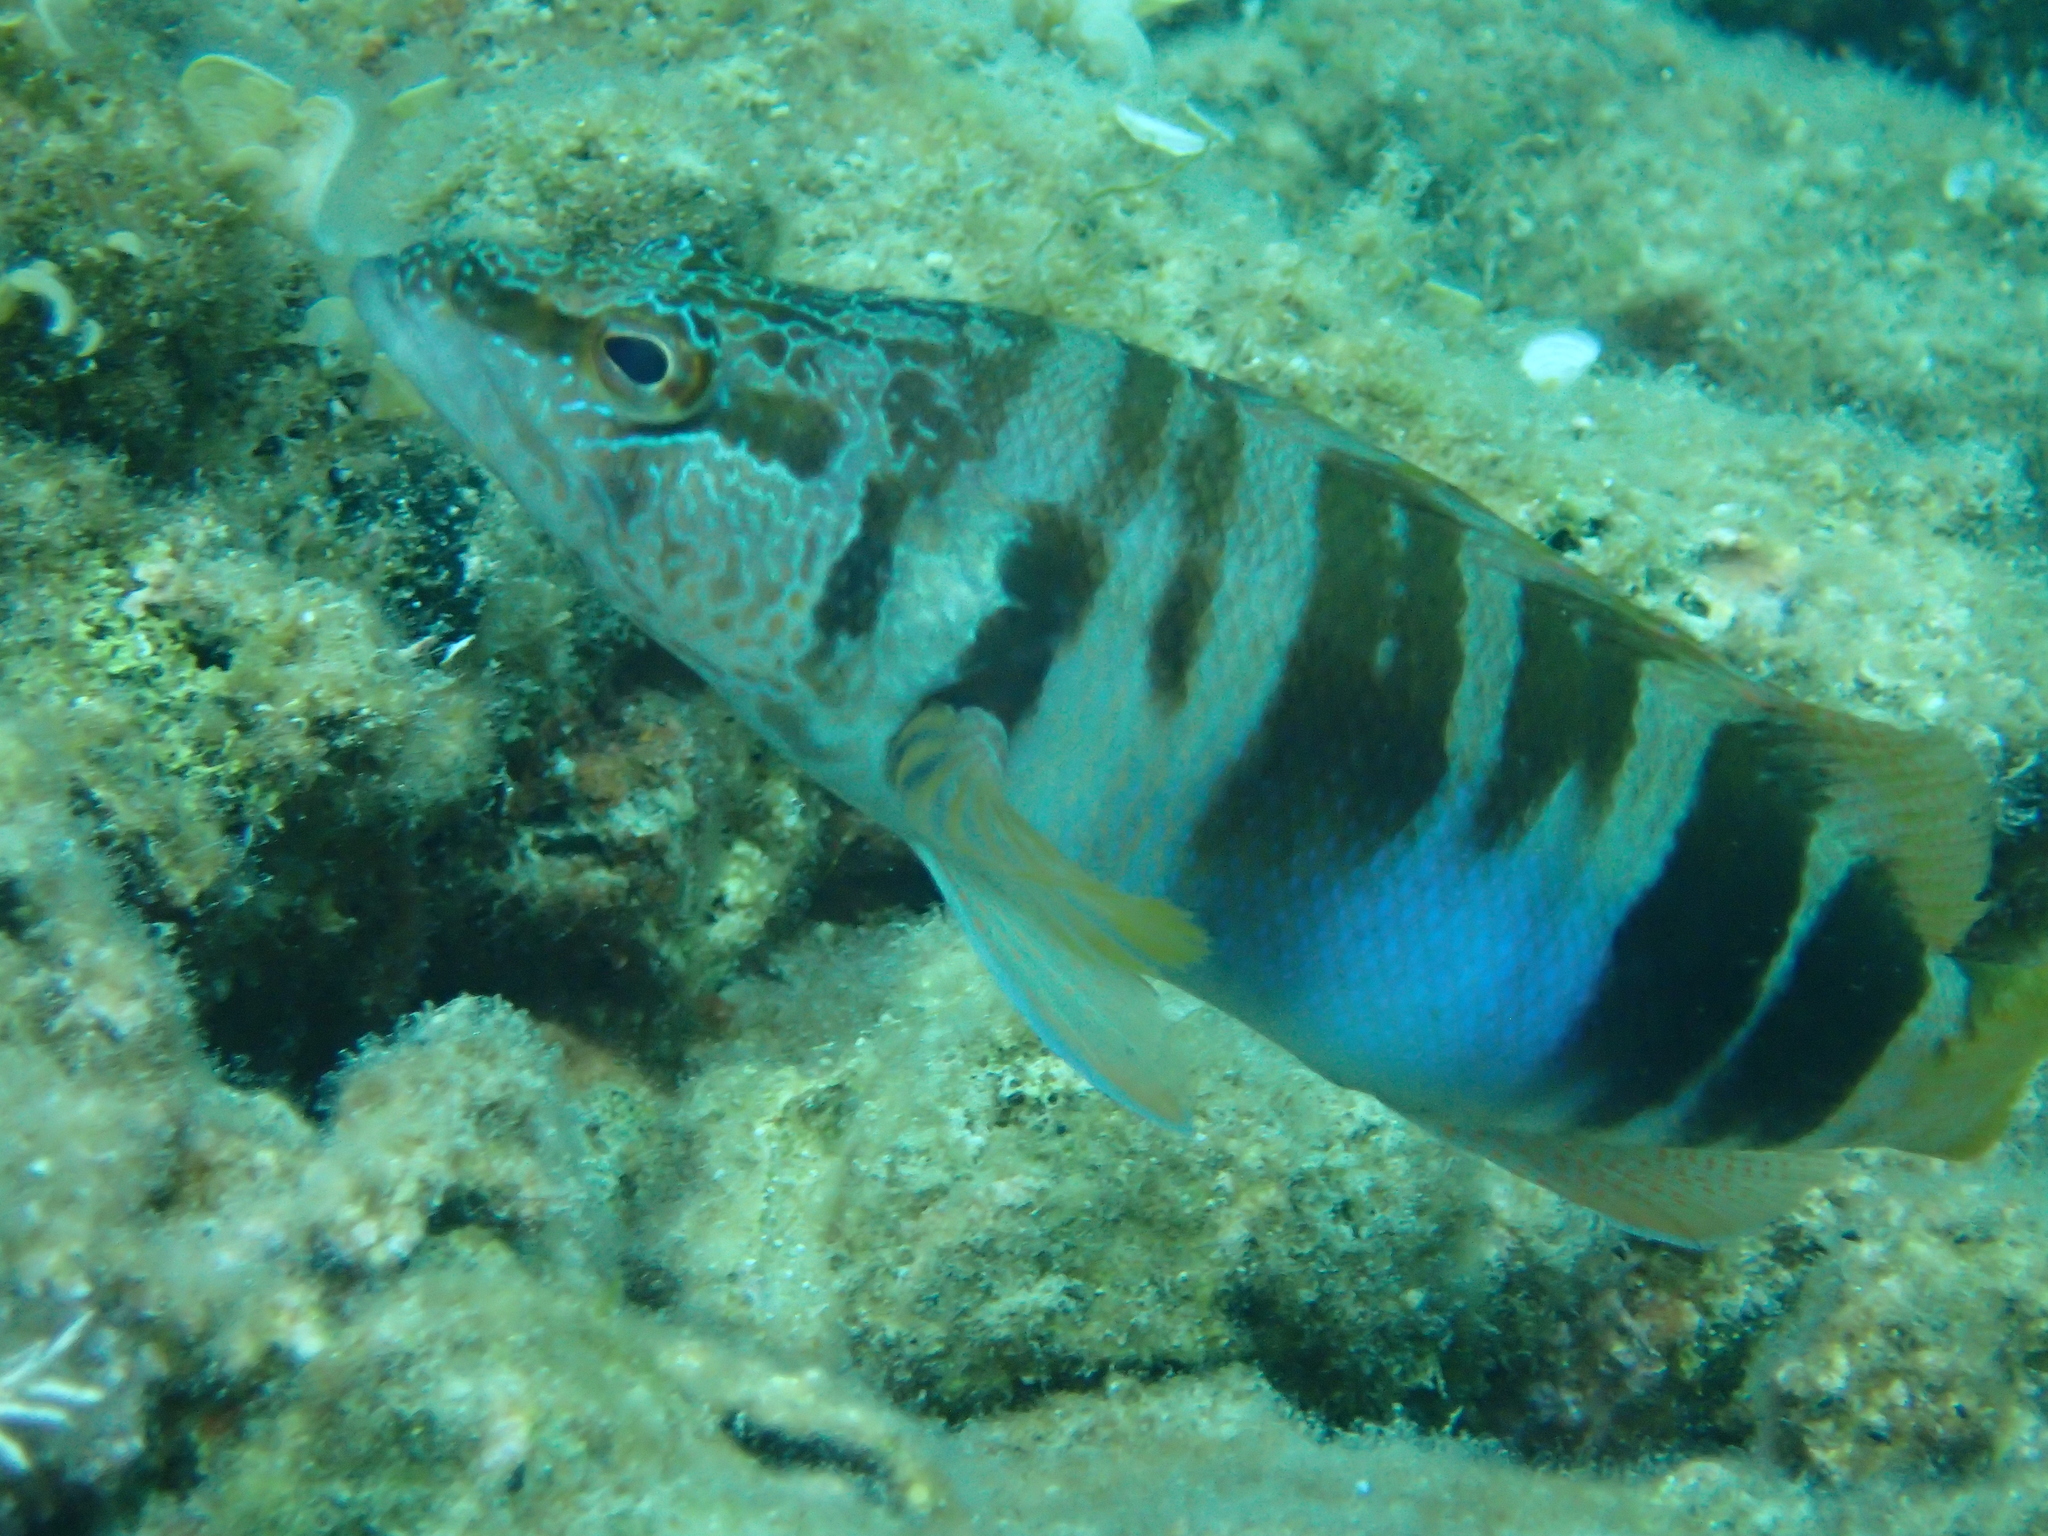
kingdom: Animalia
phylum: Chordata
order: Perciformes
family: Serranidae
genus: Serranus
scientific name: Serranus scriba
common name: Painted comber
